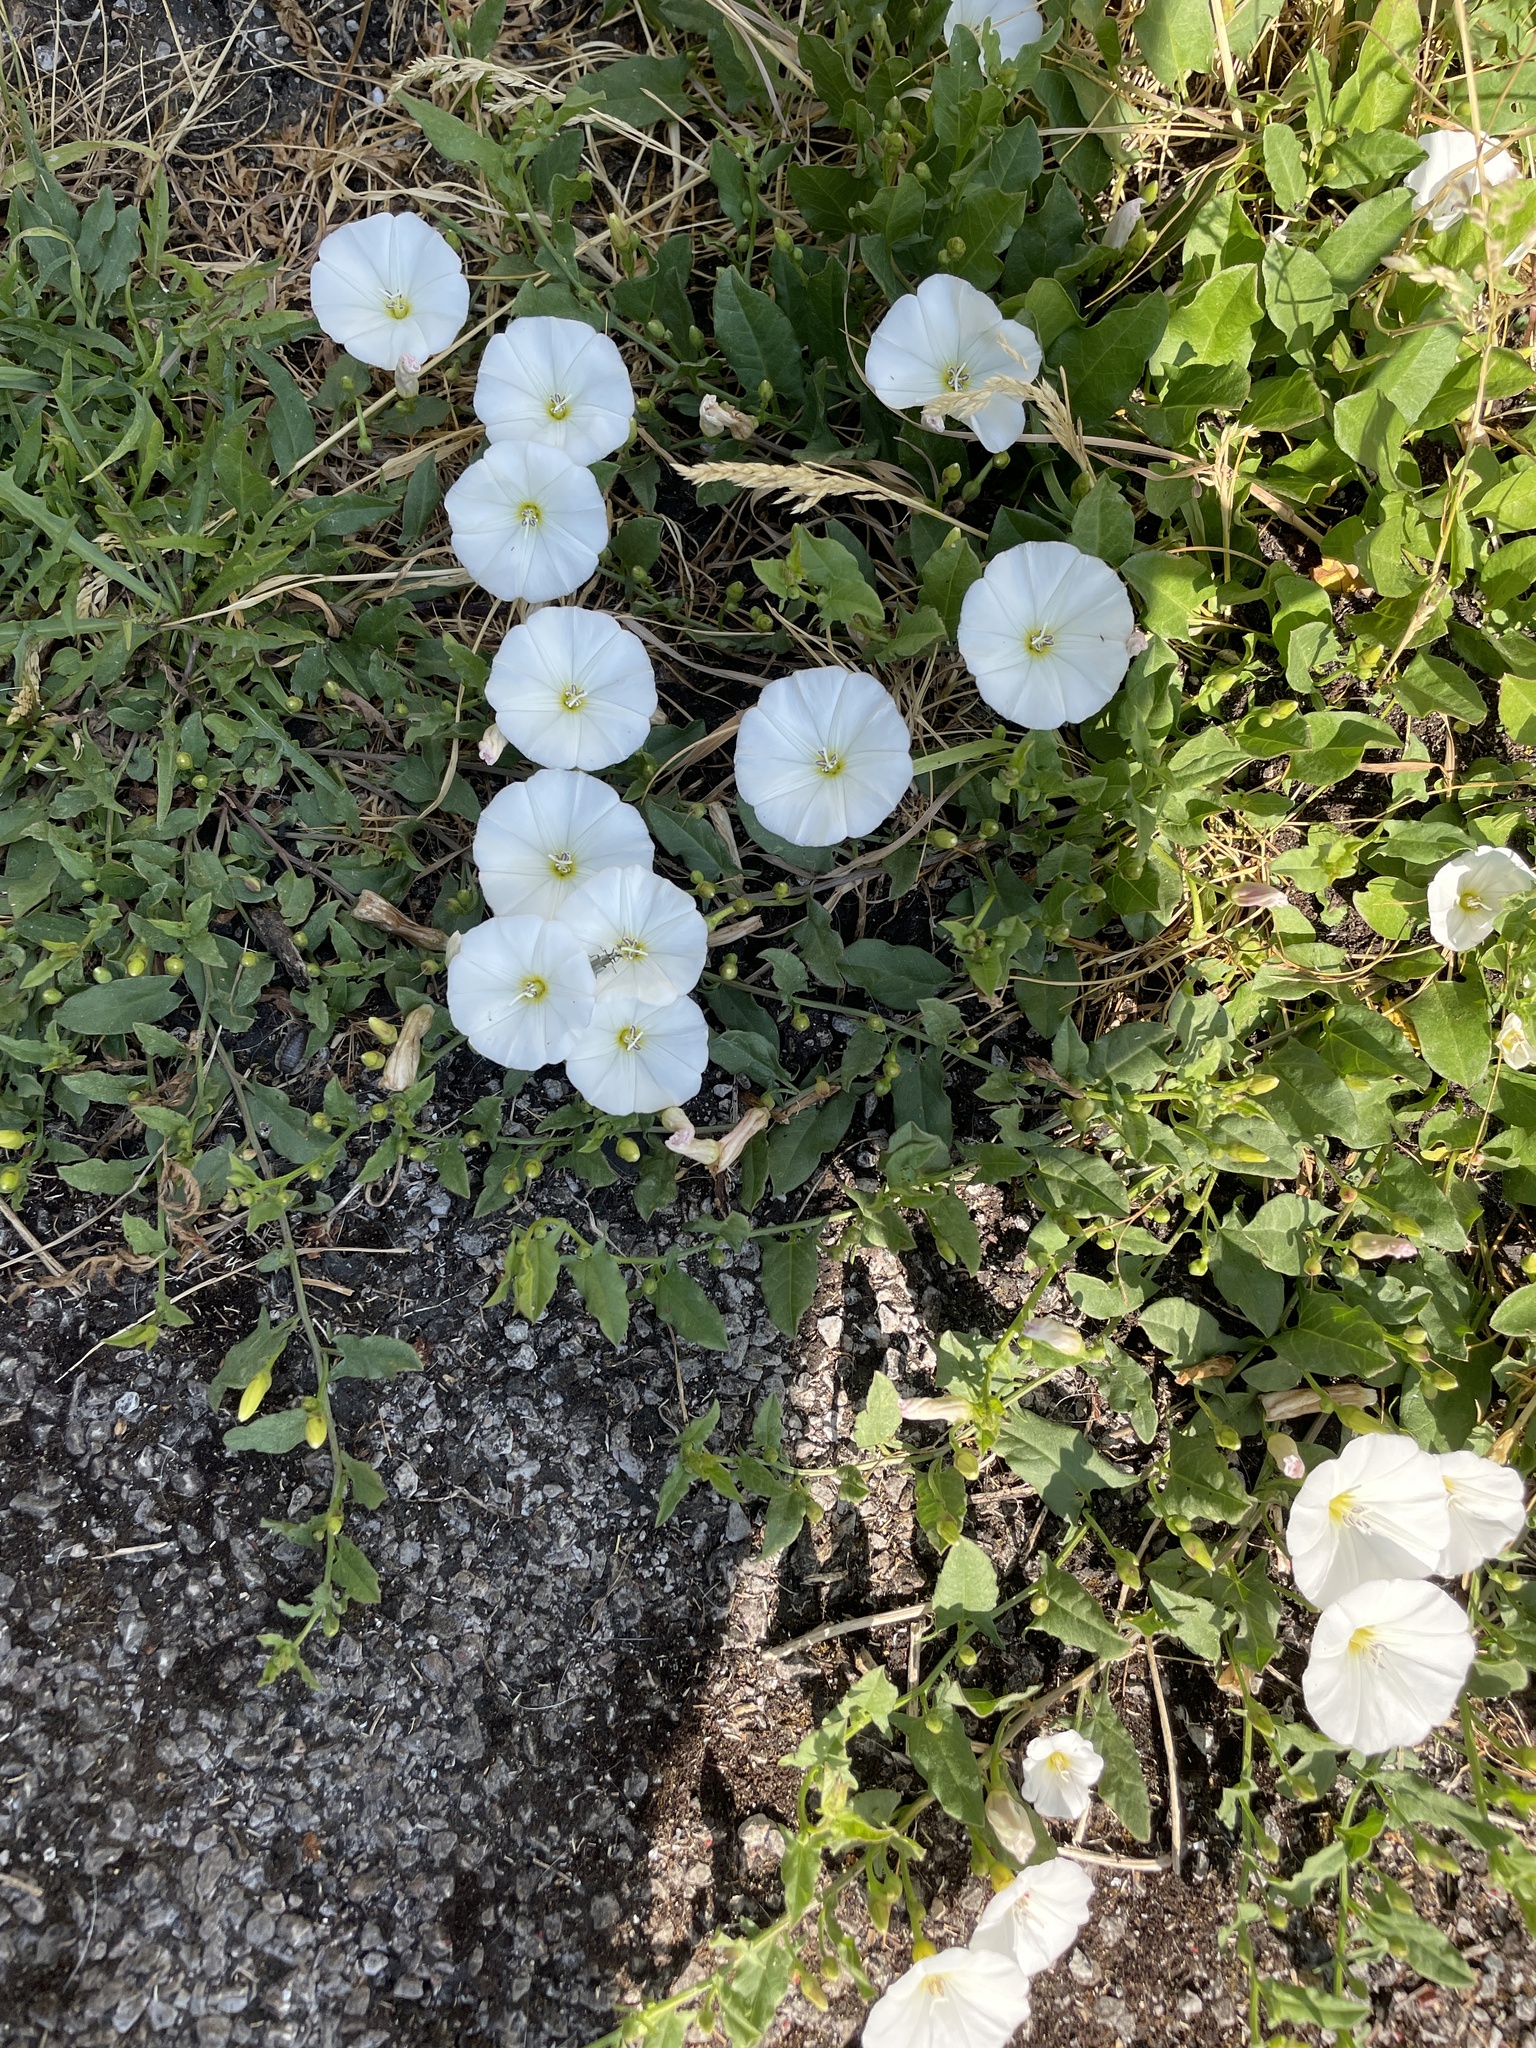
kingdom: Plantae
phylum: Tracheophyta
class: Magnoliopsida
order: Solanales
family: Convolvulaceae
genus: Convolvulus
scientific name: Convolvulus arvensis
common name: Field bindweed
